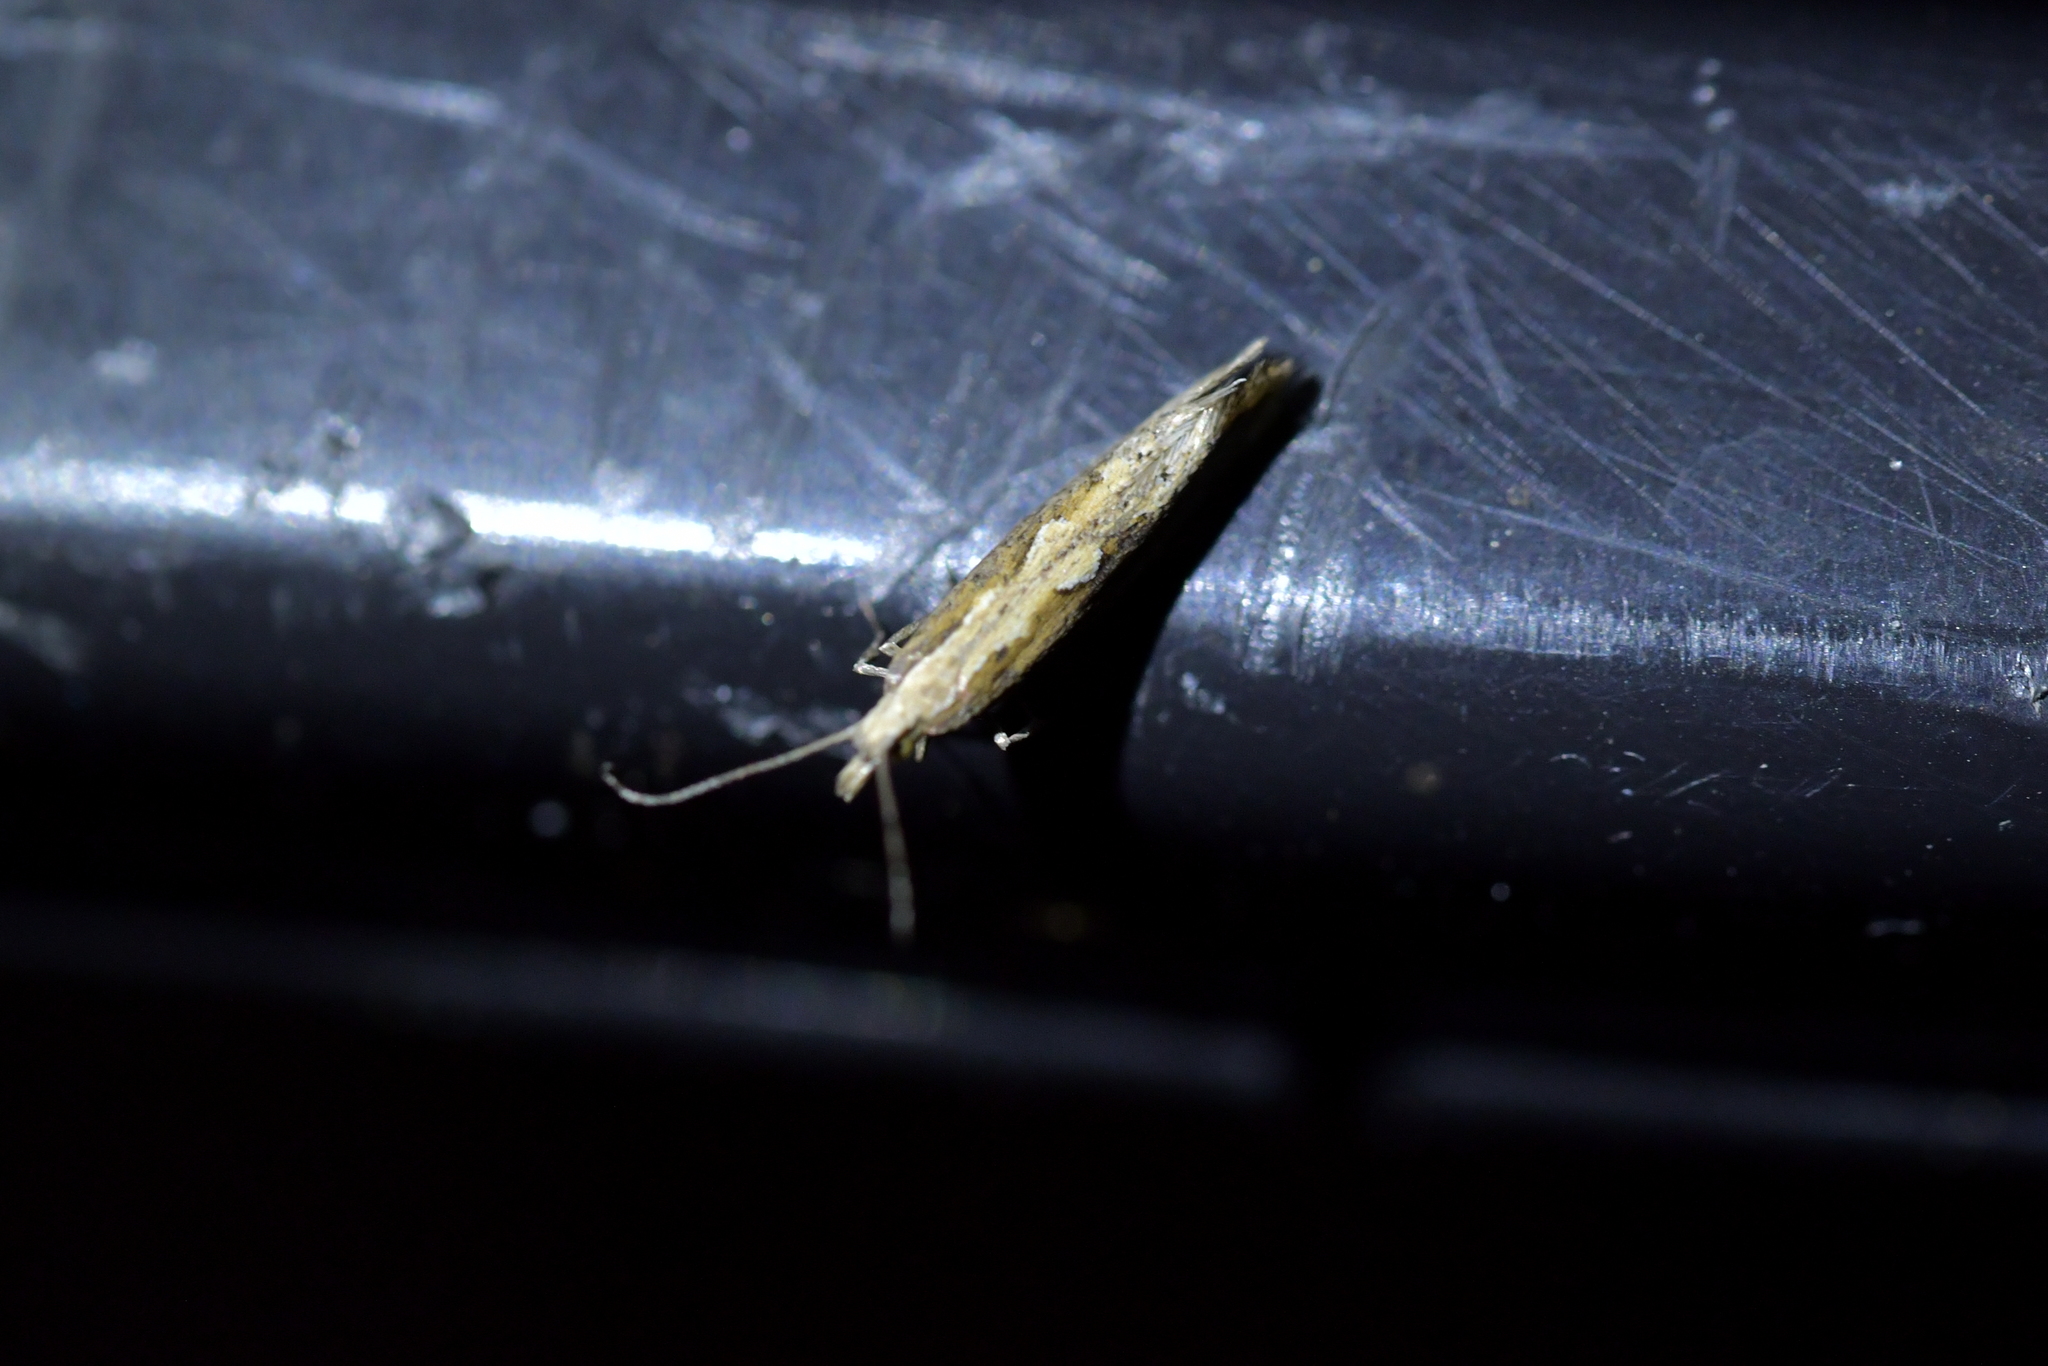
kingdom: Animalia
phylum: Arthropoda
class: Insecta
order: Lepidoptera
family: Plutellidae
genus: Plutella
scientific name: Plutella xylostella
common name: Diamond-back moth
